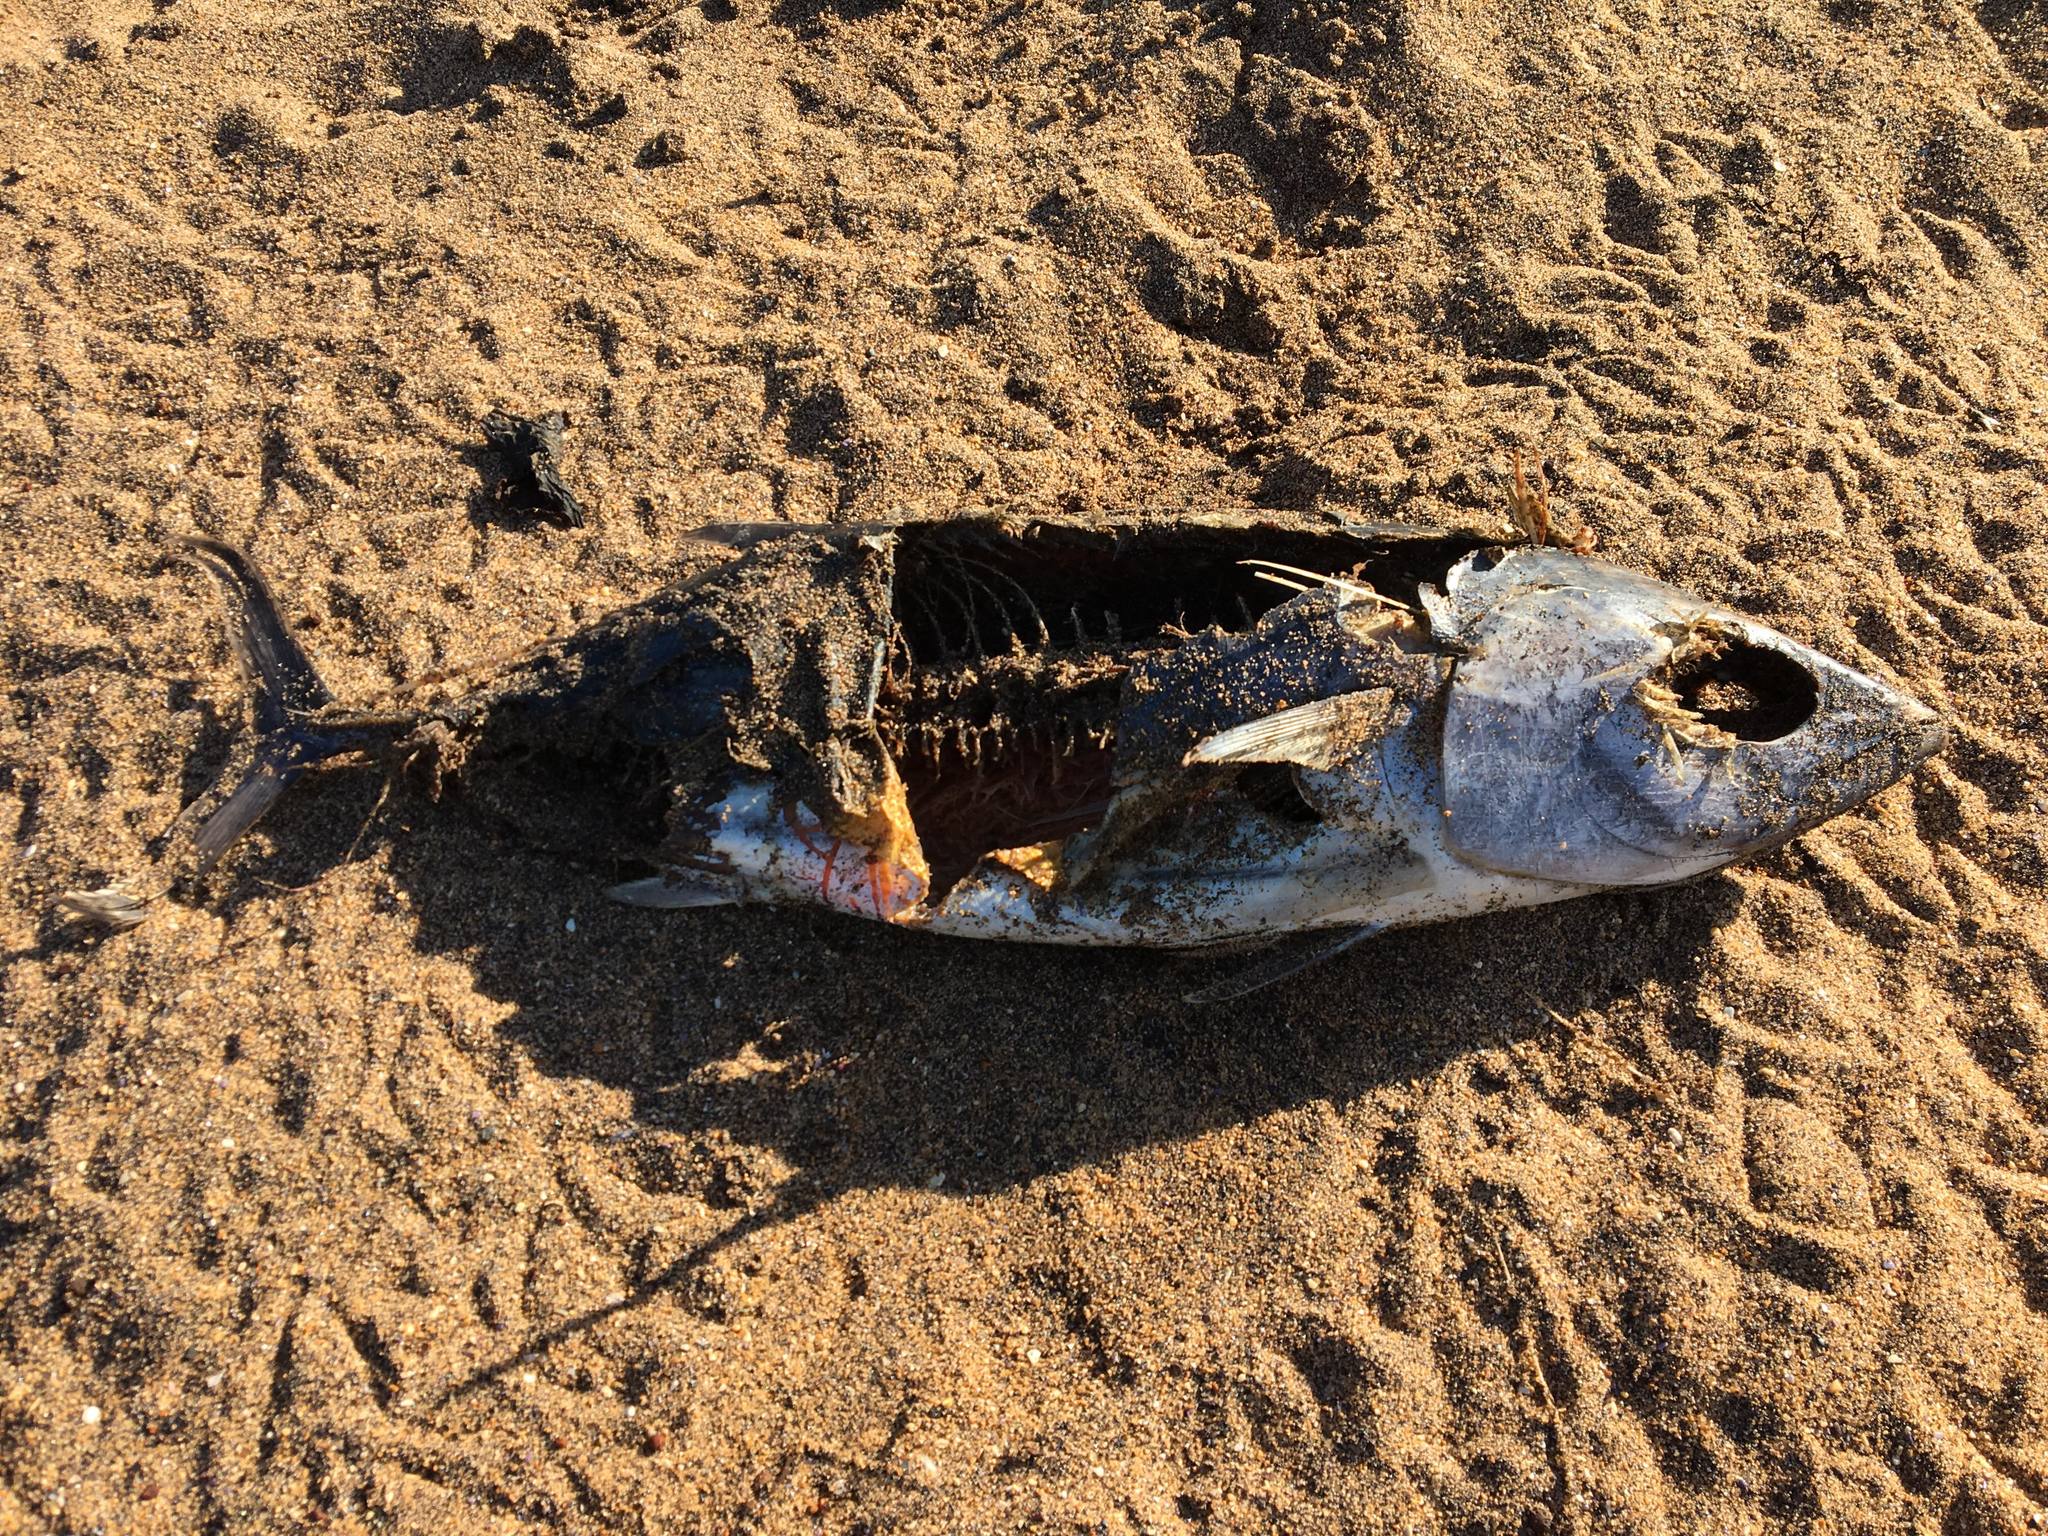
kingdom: Animalia
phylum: Chordata
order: Perciformes
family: Scombridae
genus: Sarda
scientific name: Sarda australis
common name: Australian bonito
